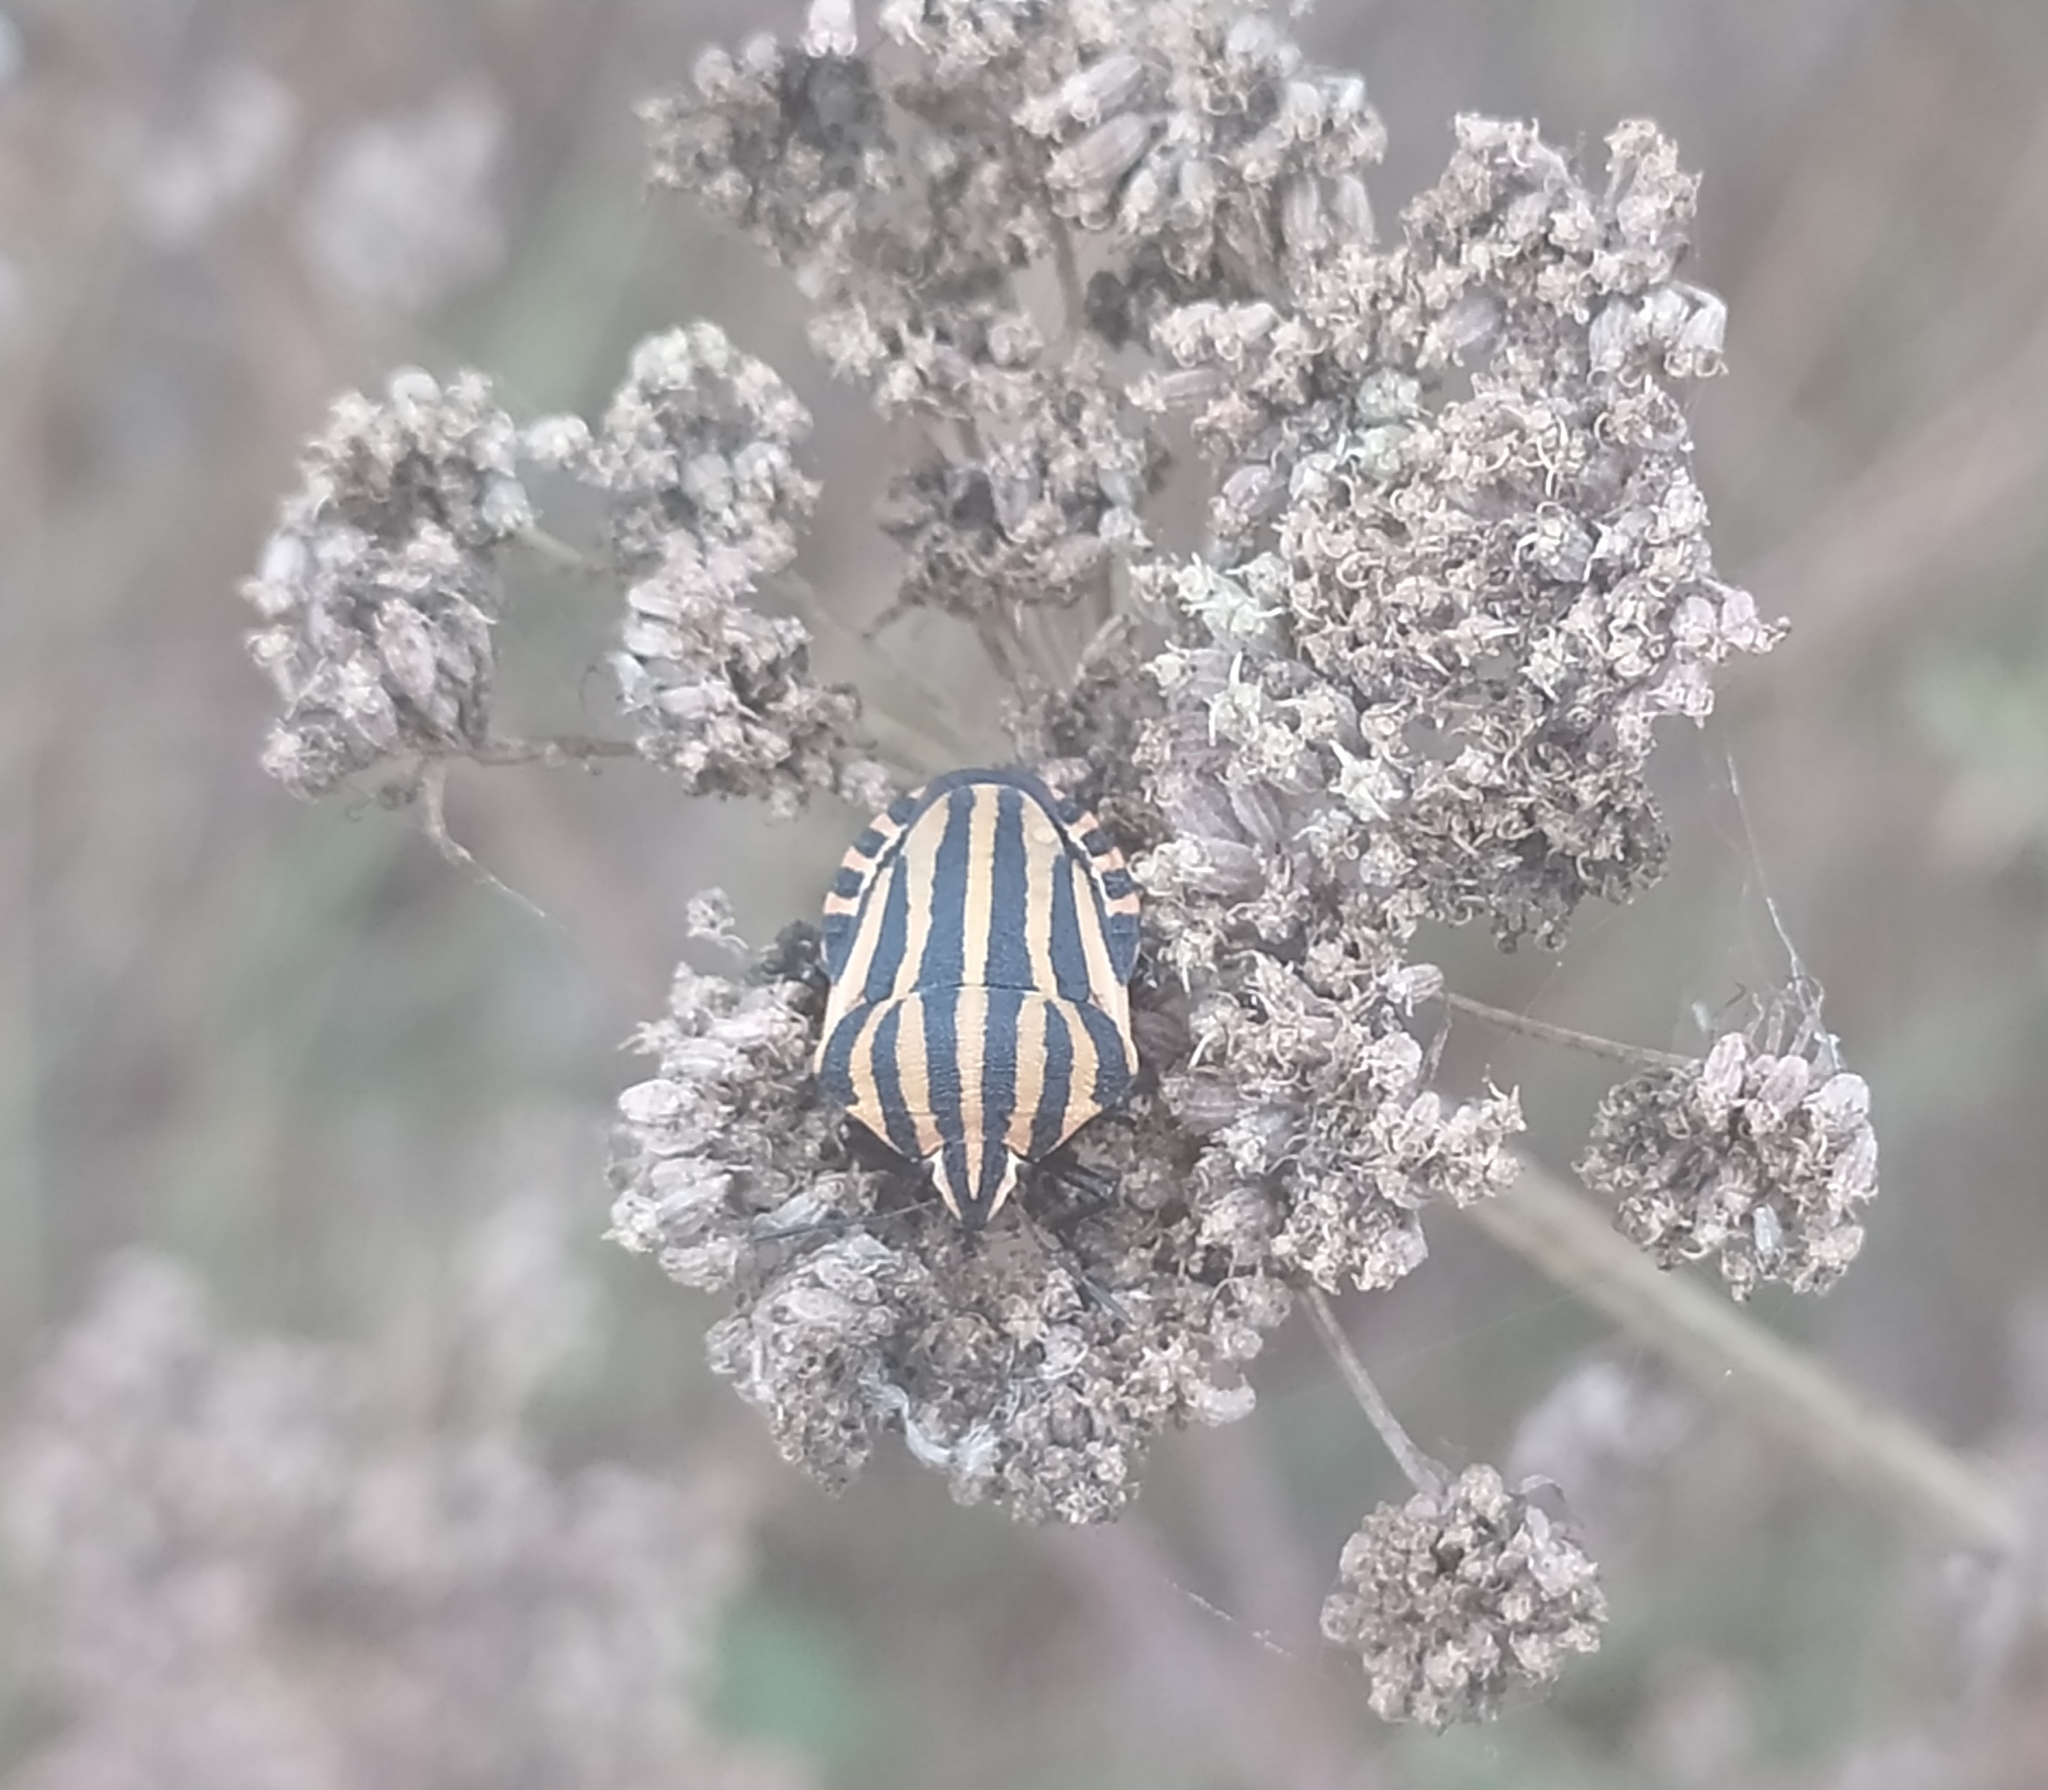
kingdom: Animalia
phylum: Arthropoda
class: Insecta
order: Hemiptera
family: Pentatomidae
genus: Graphosoma
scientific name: Graphosoma italicum
